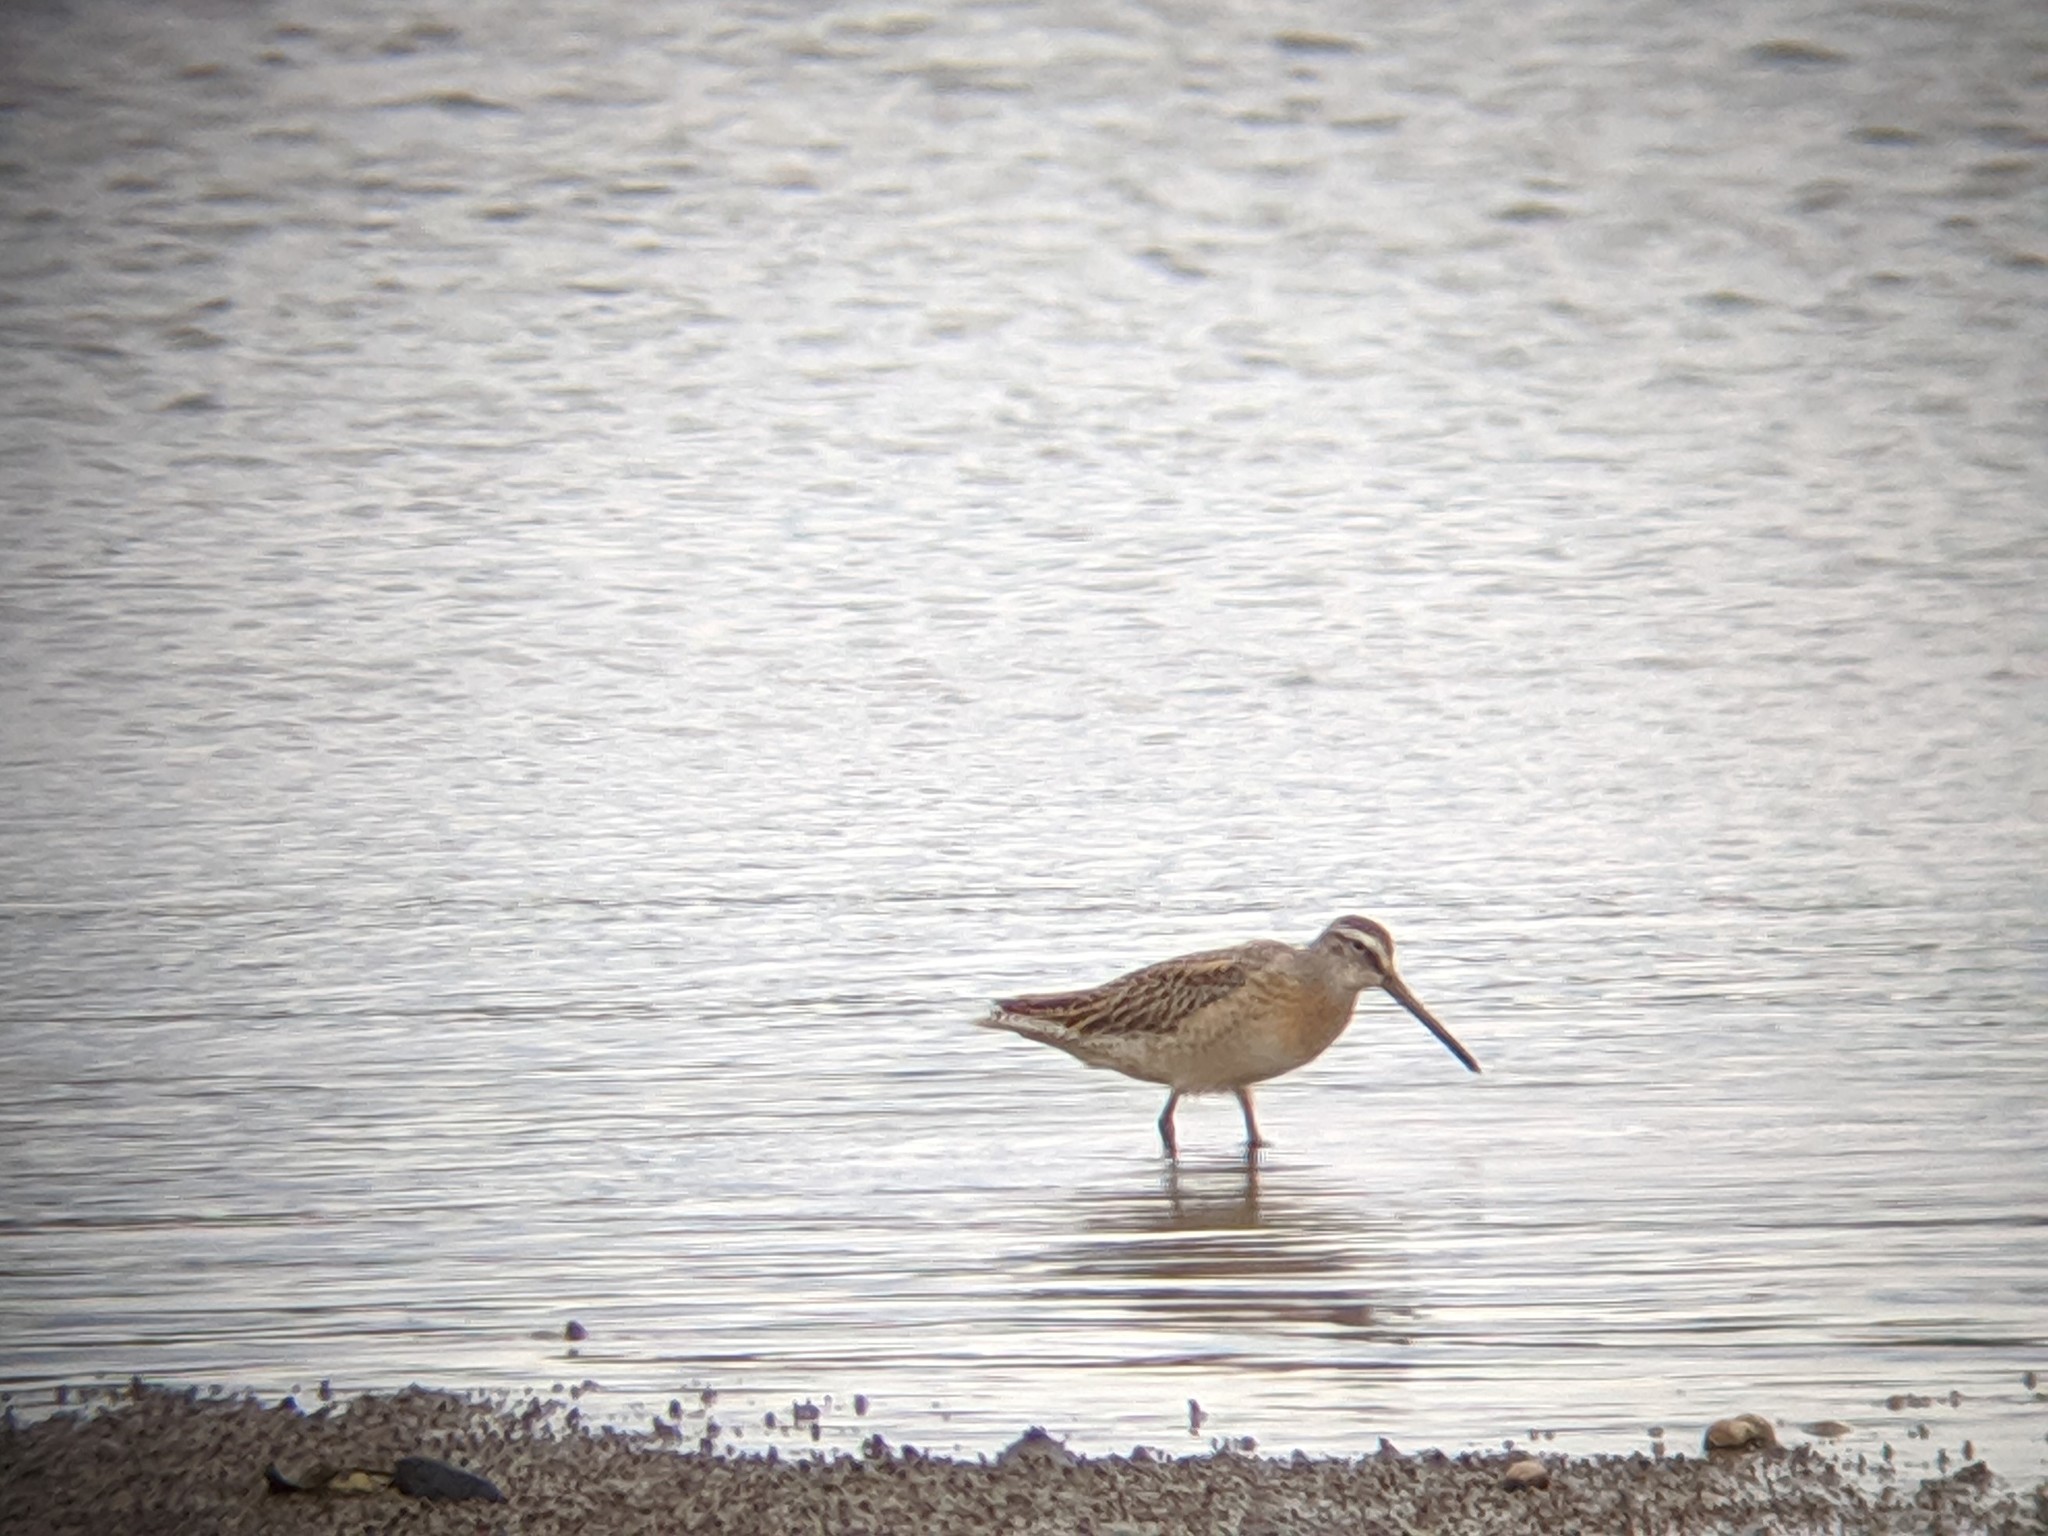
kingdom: Animalia
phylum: Chordata
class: Aves
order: Charadriiformes
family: Scolopacidae
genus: Limnodromus
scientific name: Limnodromus griseus
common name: Short-billed dowitcher
